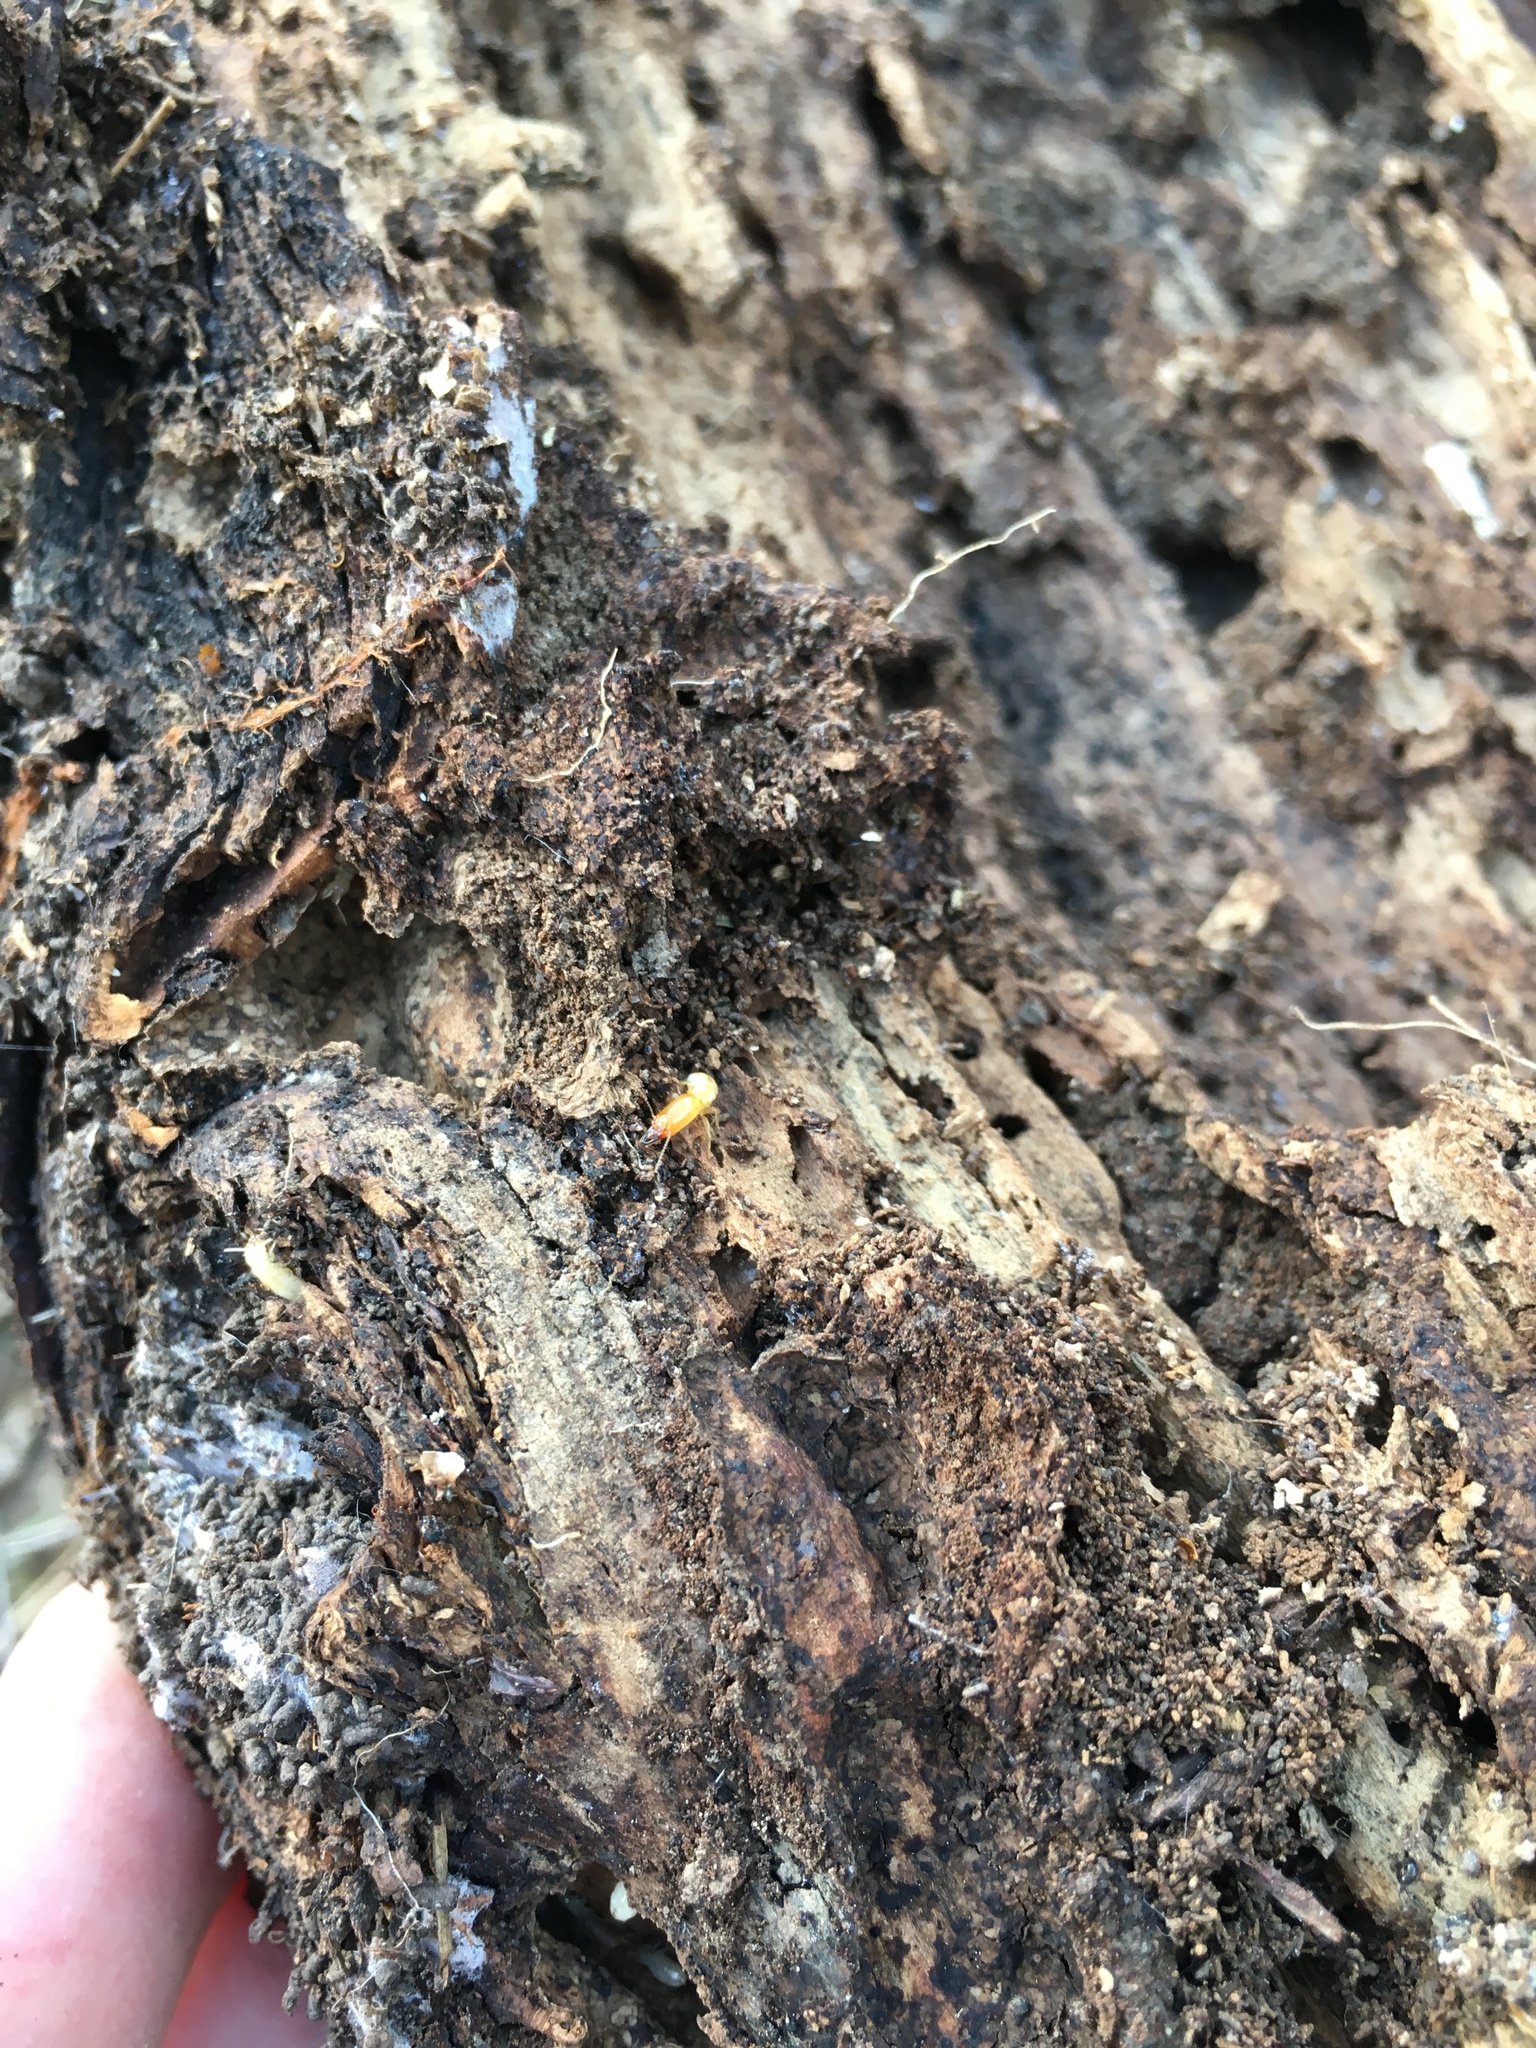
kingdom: Animalia
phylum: Arthropoda
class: Insecta
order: Blattodea
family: Rhinotermitidae
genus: Reticulitermes
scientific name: Reticulitermes hesperus
